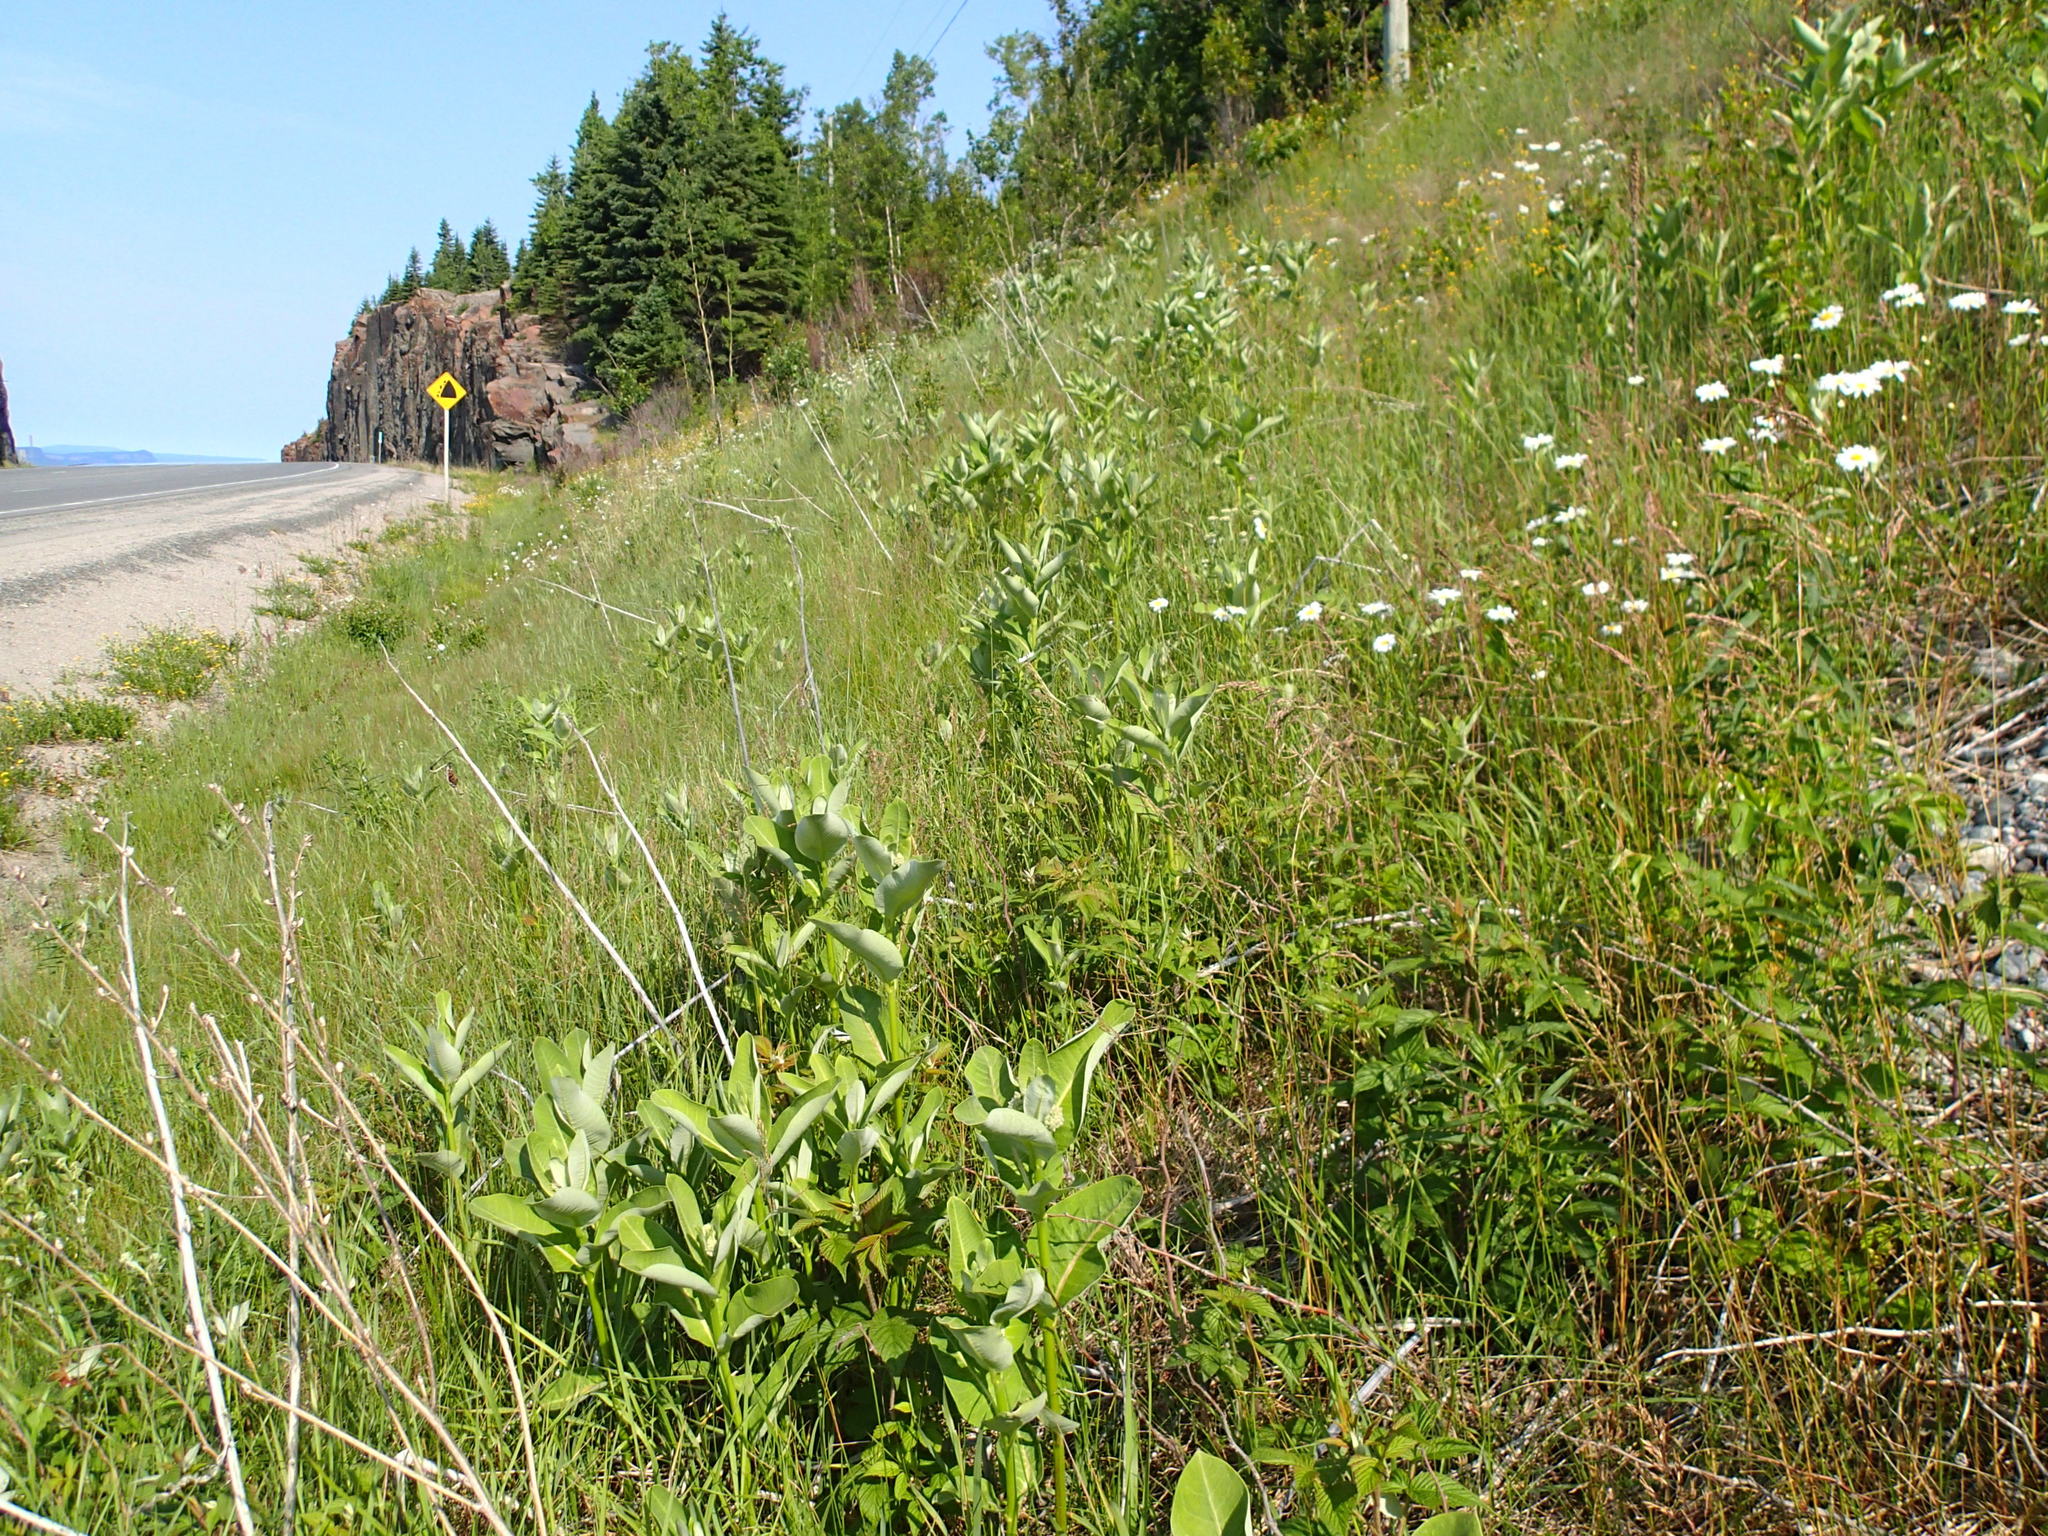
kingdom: Plantae
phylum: Tracheophyta
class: Magnoliopsida
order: Gentianales
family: Apocynaceae
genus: Asclepias
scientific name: Asclepias syriaca
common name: Common milkweed
